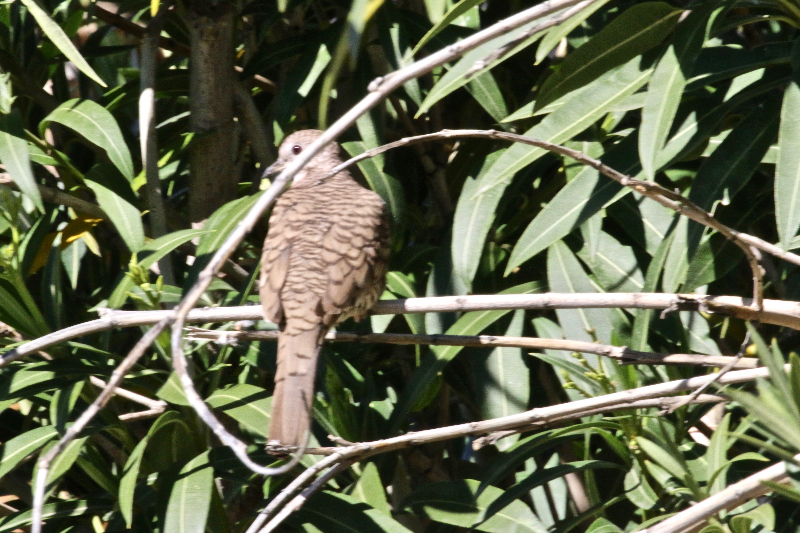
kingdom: Animalia
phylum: Chordata
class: Aves
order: Columbiformes
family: Columbidae
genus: Columbina
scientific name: Columbina inca
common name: Inca dove
